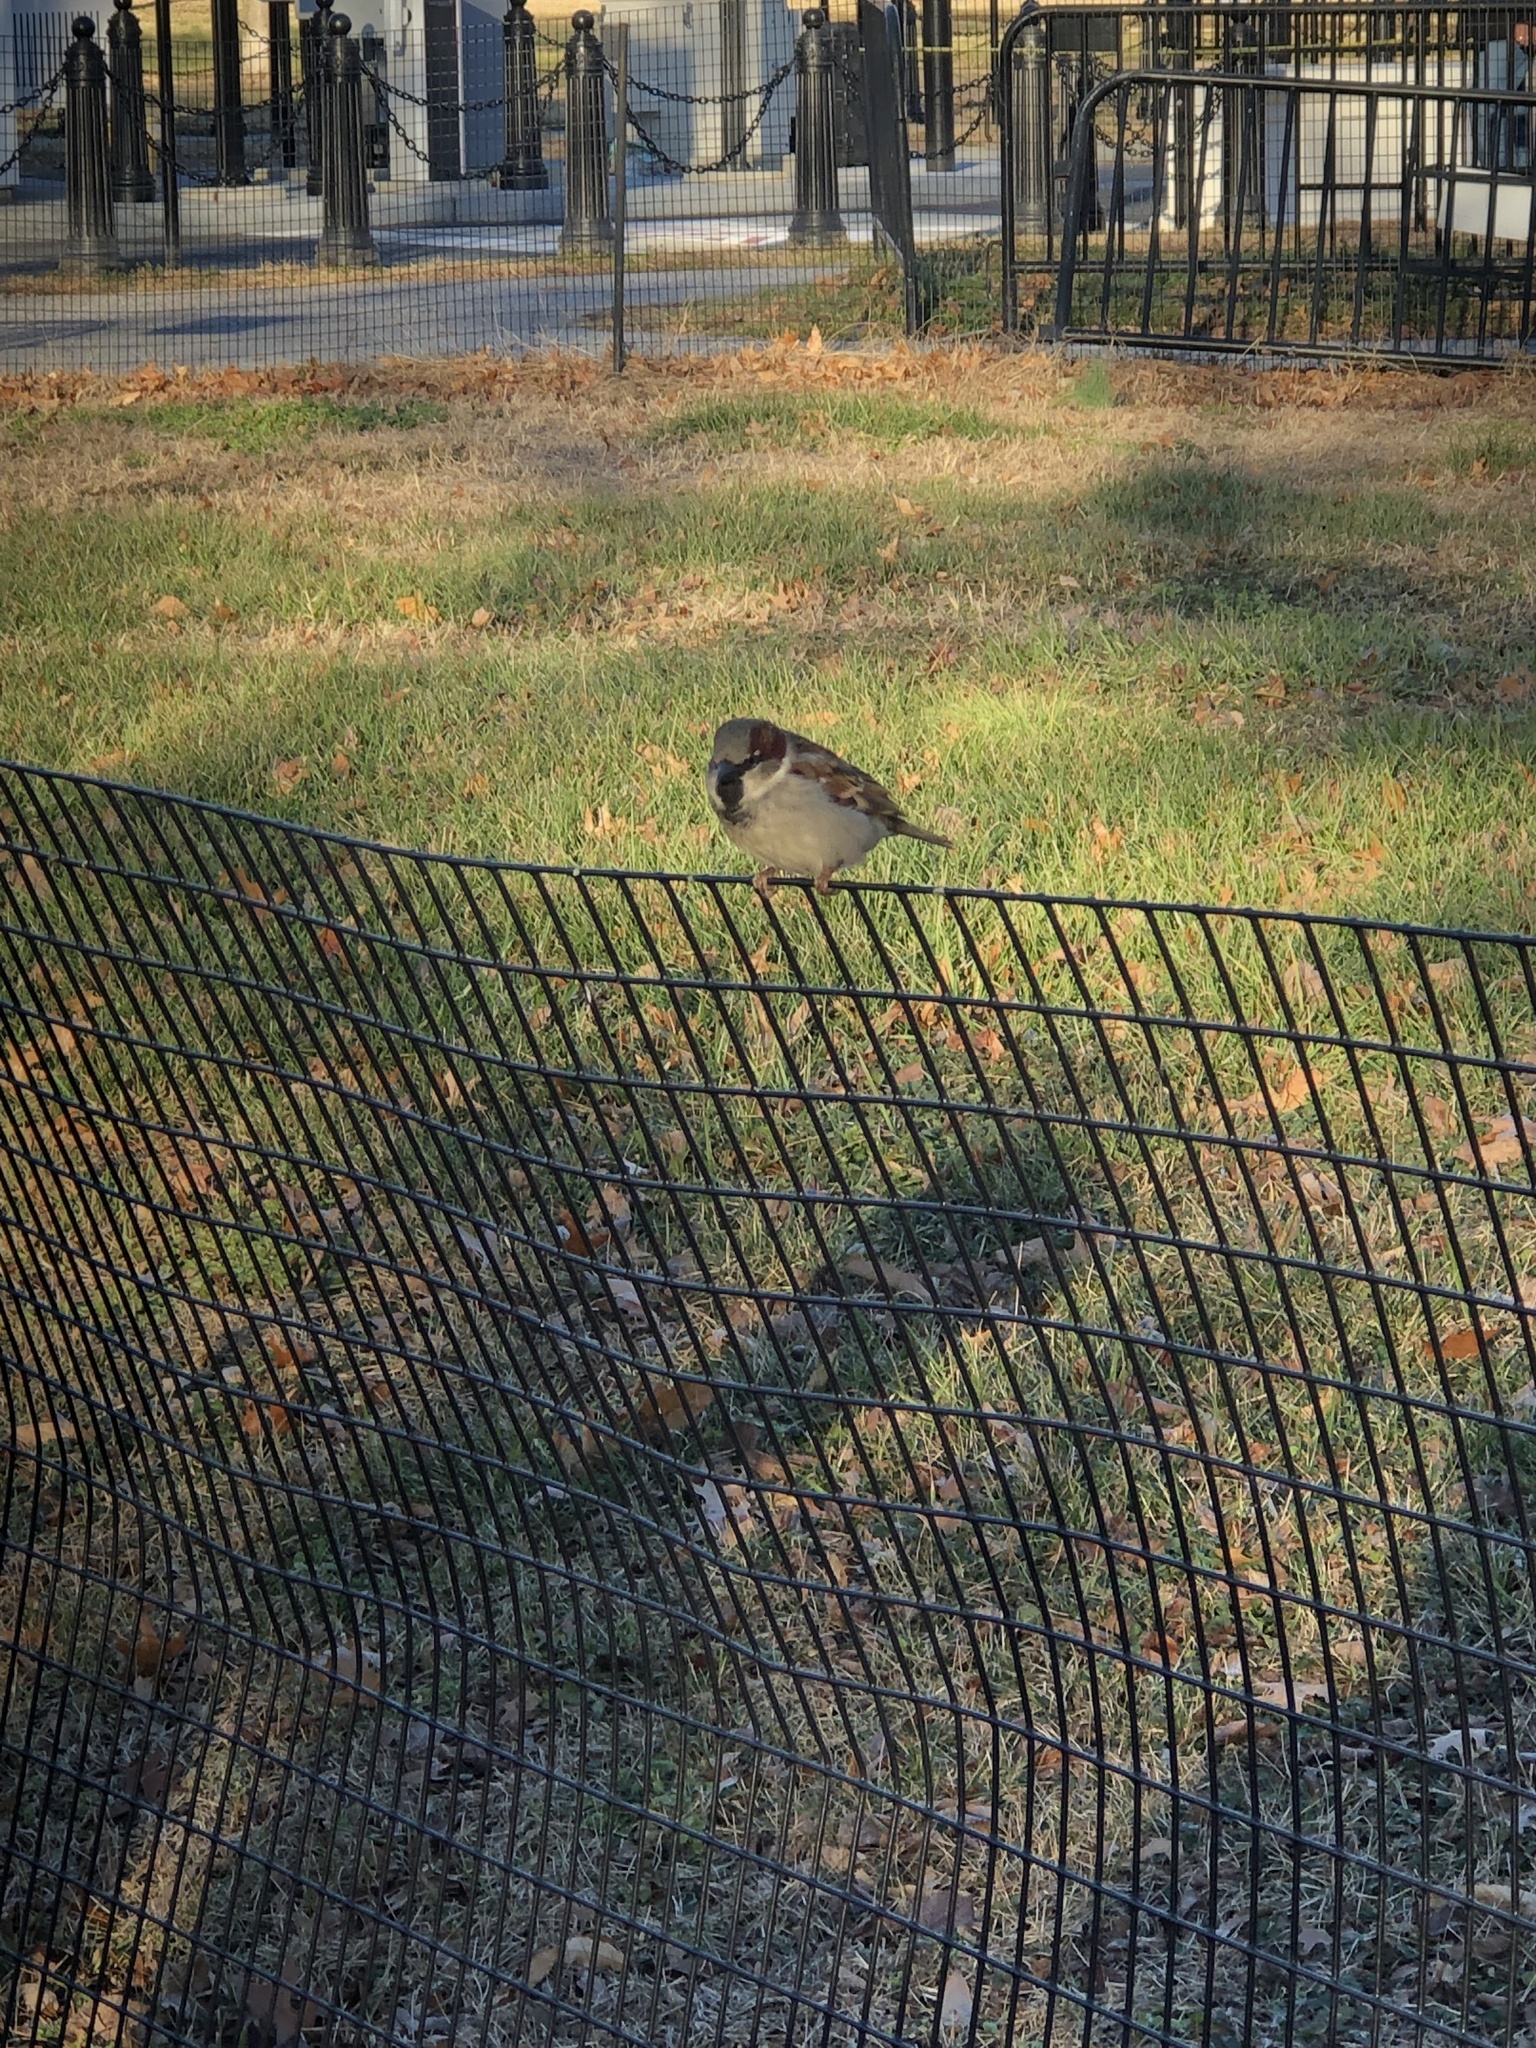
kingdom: Animalia
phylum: Chordata
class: Aves
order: Passeriformes
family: Passeridae
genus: Passer
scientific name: Passer domesticus
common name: House sparrow
